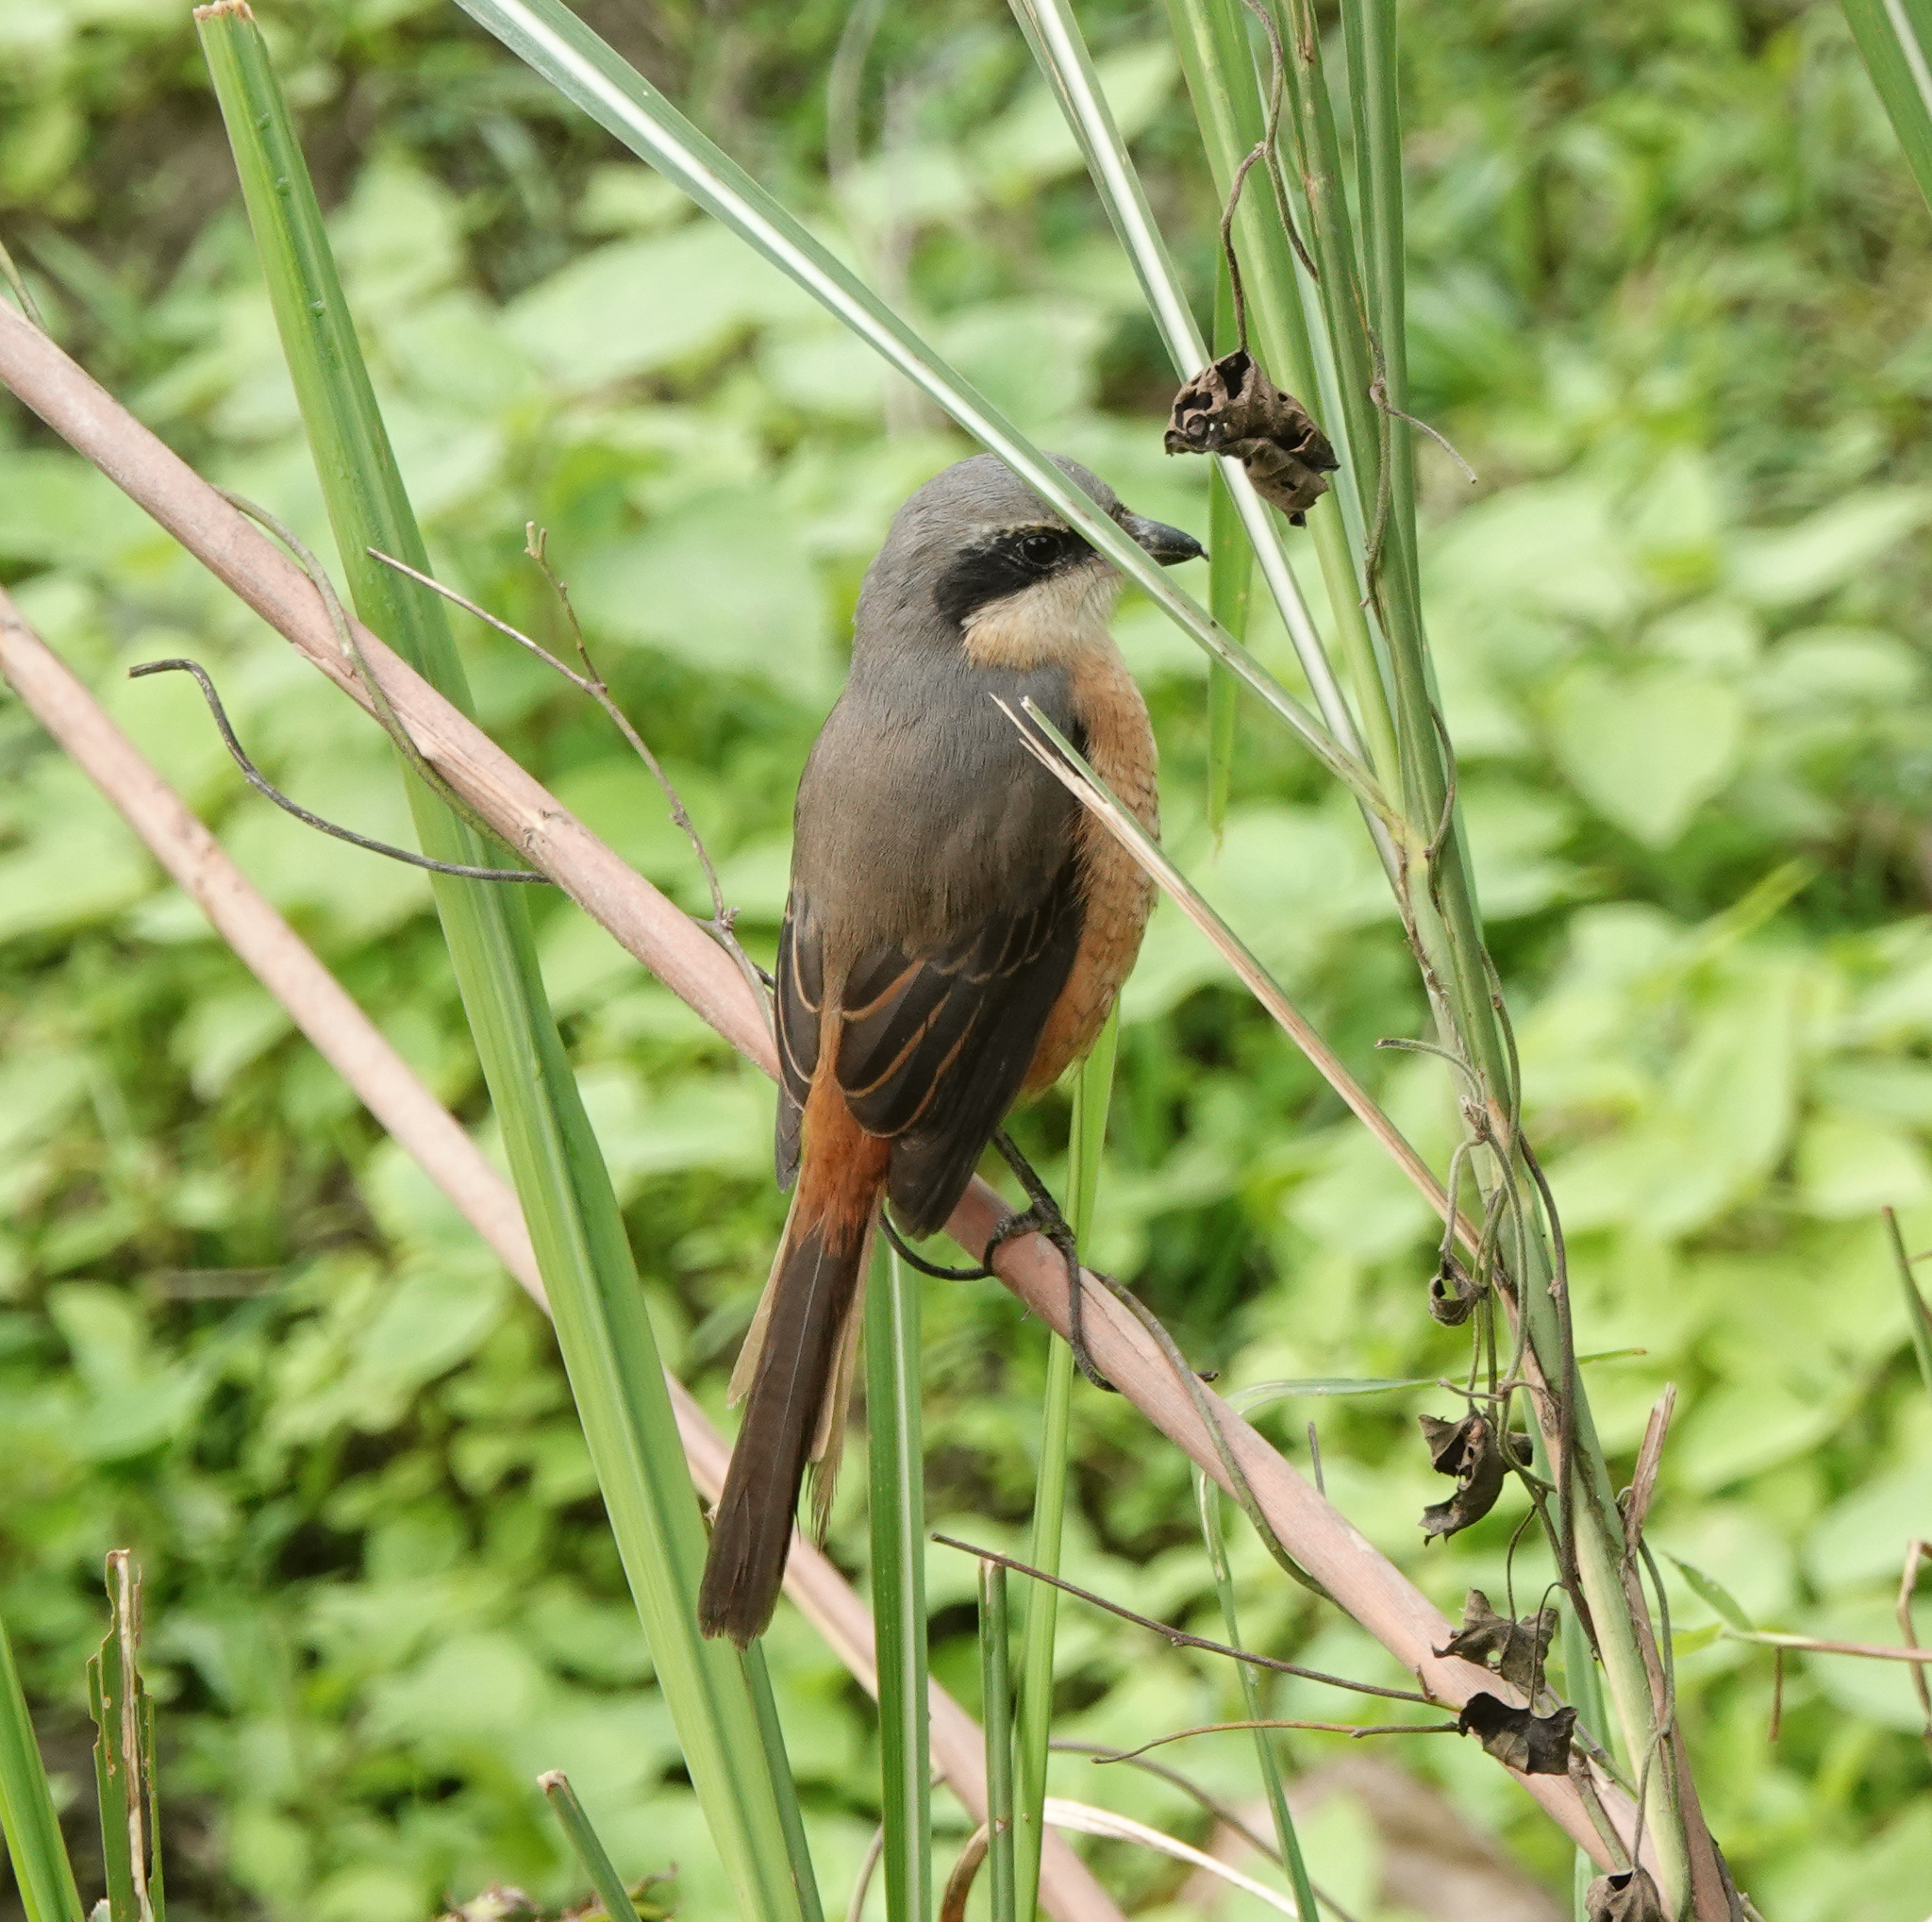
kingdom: Animalia
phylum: Chordata
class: Aves
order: Passeriformes
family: Laniidae
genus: Lanius
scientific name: Lanius tephronotus
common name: Grey-backed shrike
